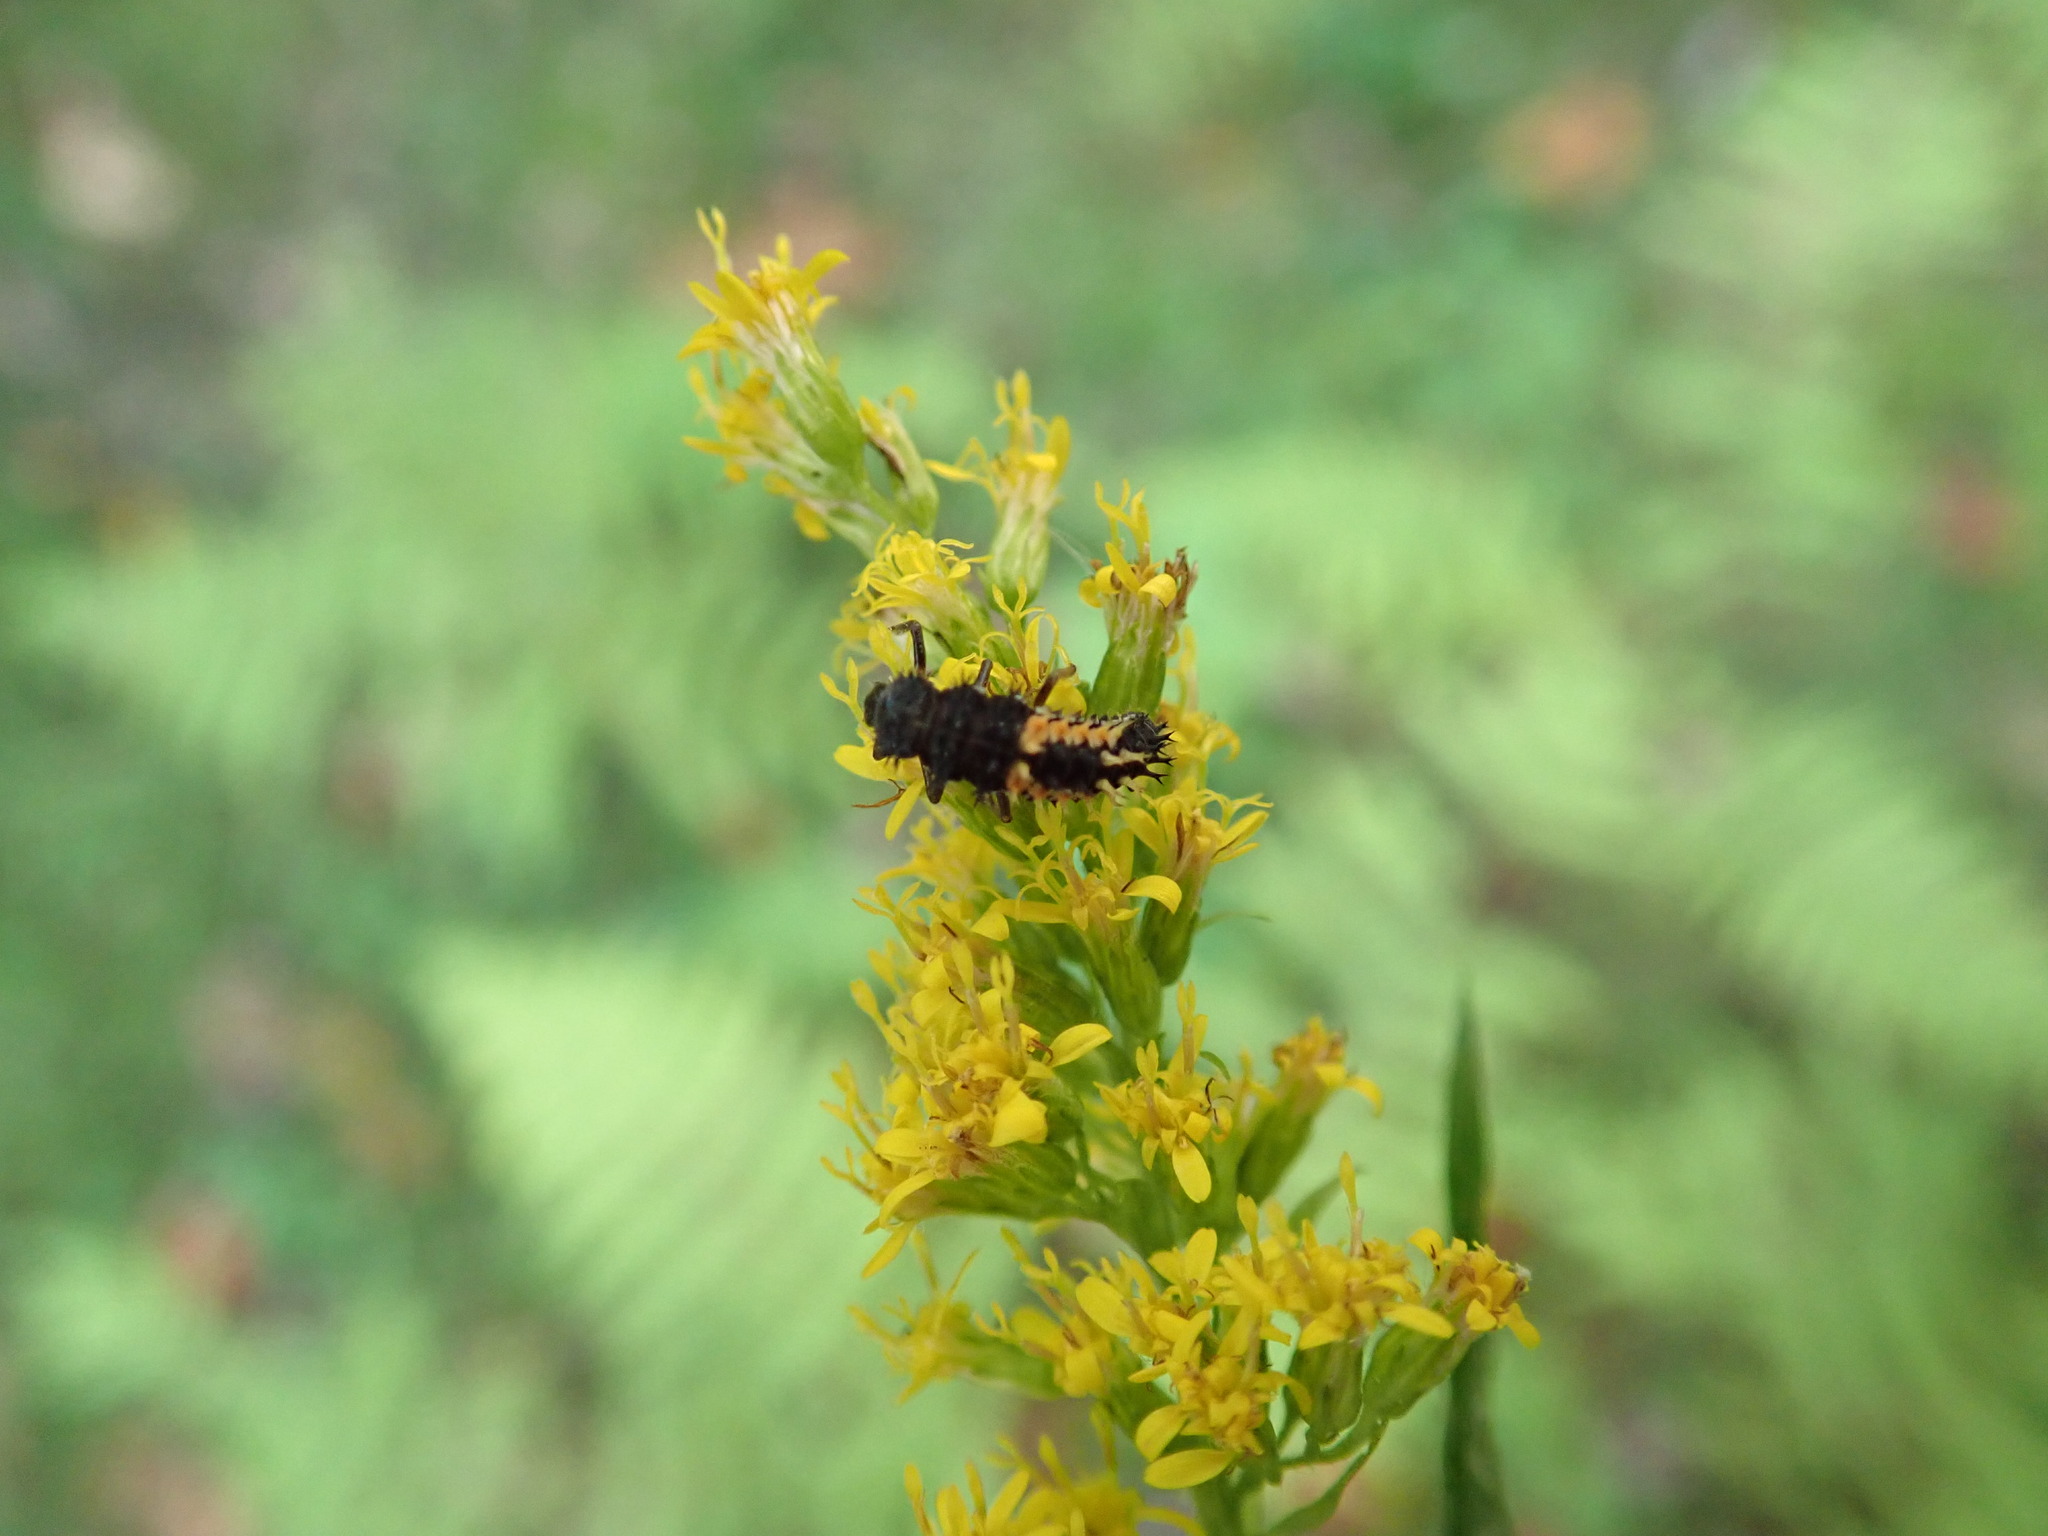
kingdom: Animalia
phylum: Arthropoda
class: Insecta
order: Coleoptera
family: Coccinellidae
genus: Harmonia
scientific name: Harmonia axyridis
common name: Harlequin ladybird
